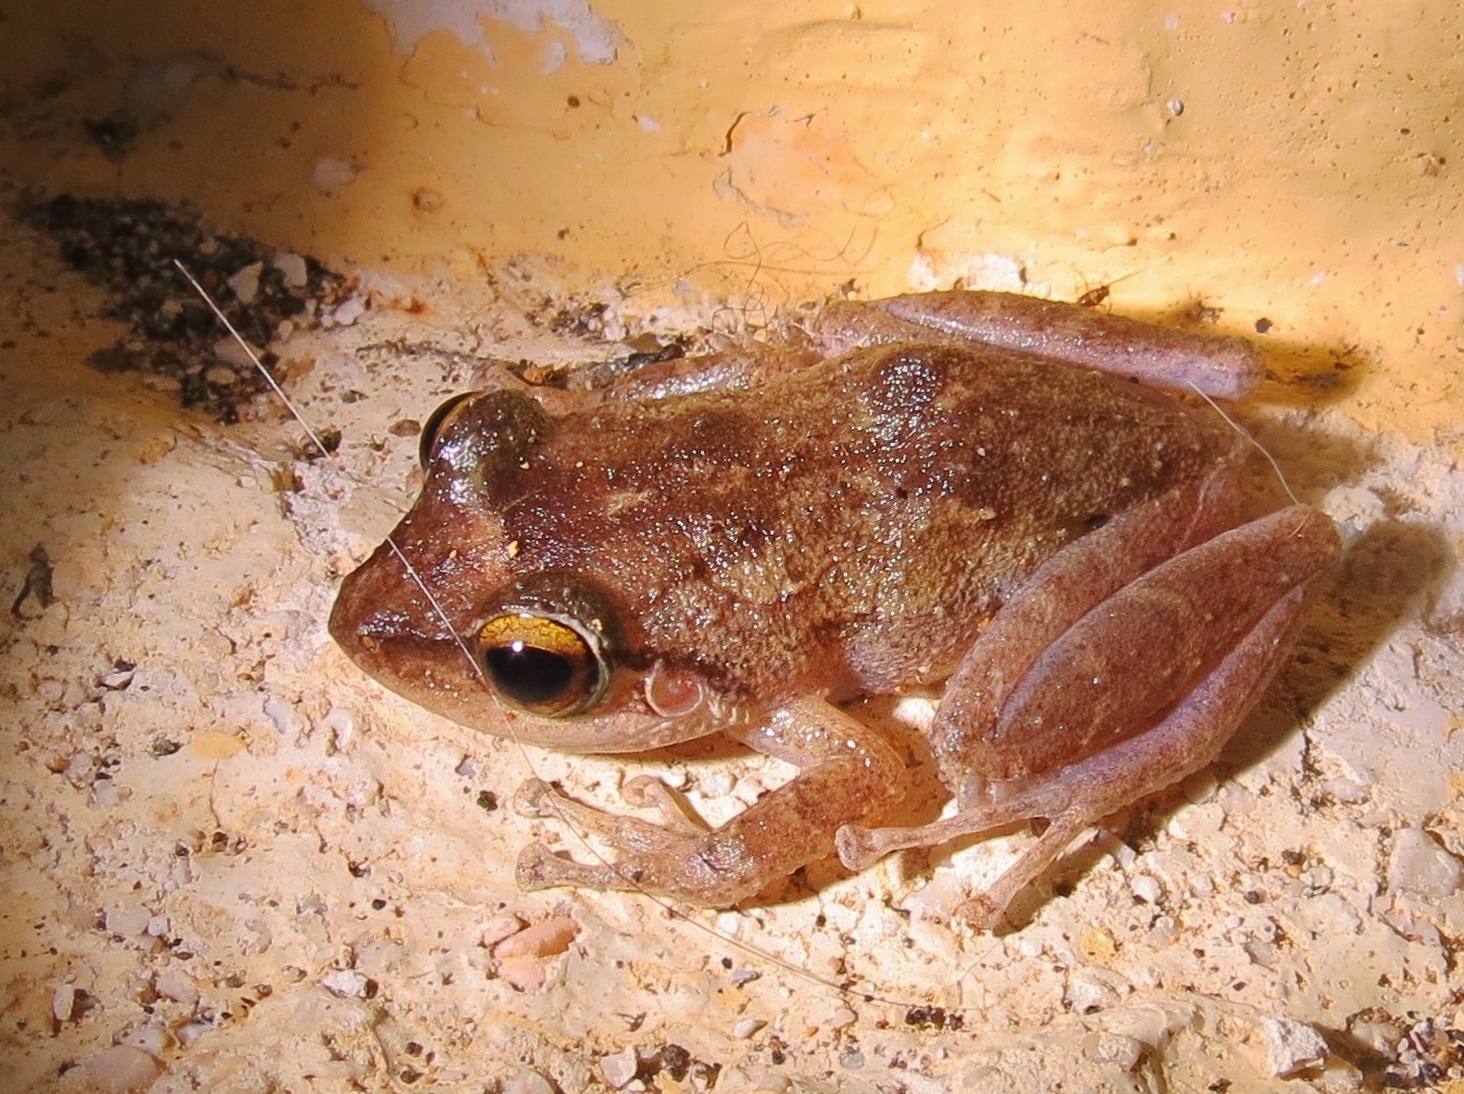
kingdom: Animalia
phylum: Chordata
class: Amphibia
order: Anura
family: Eleutherodactylidae
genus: Eleutherodactylus
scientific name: Eleutherodactylus coqui
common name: Coqui frog
